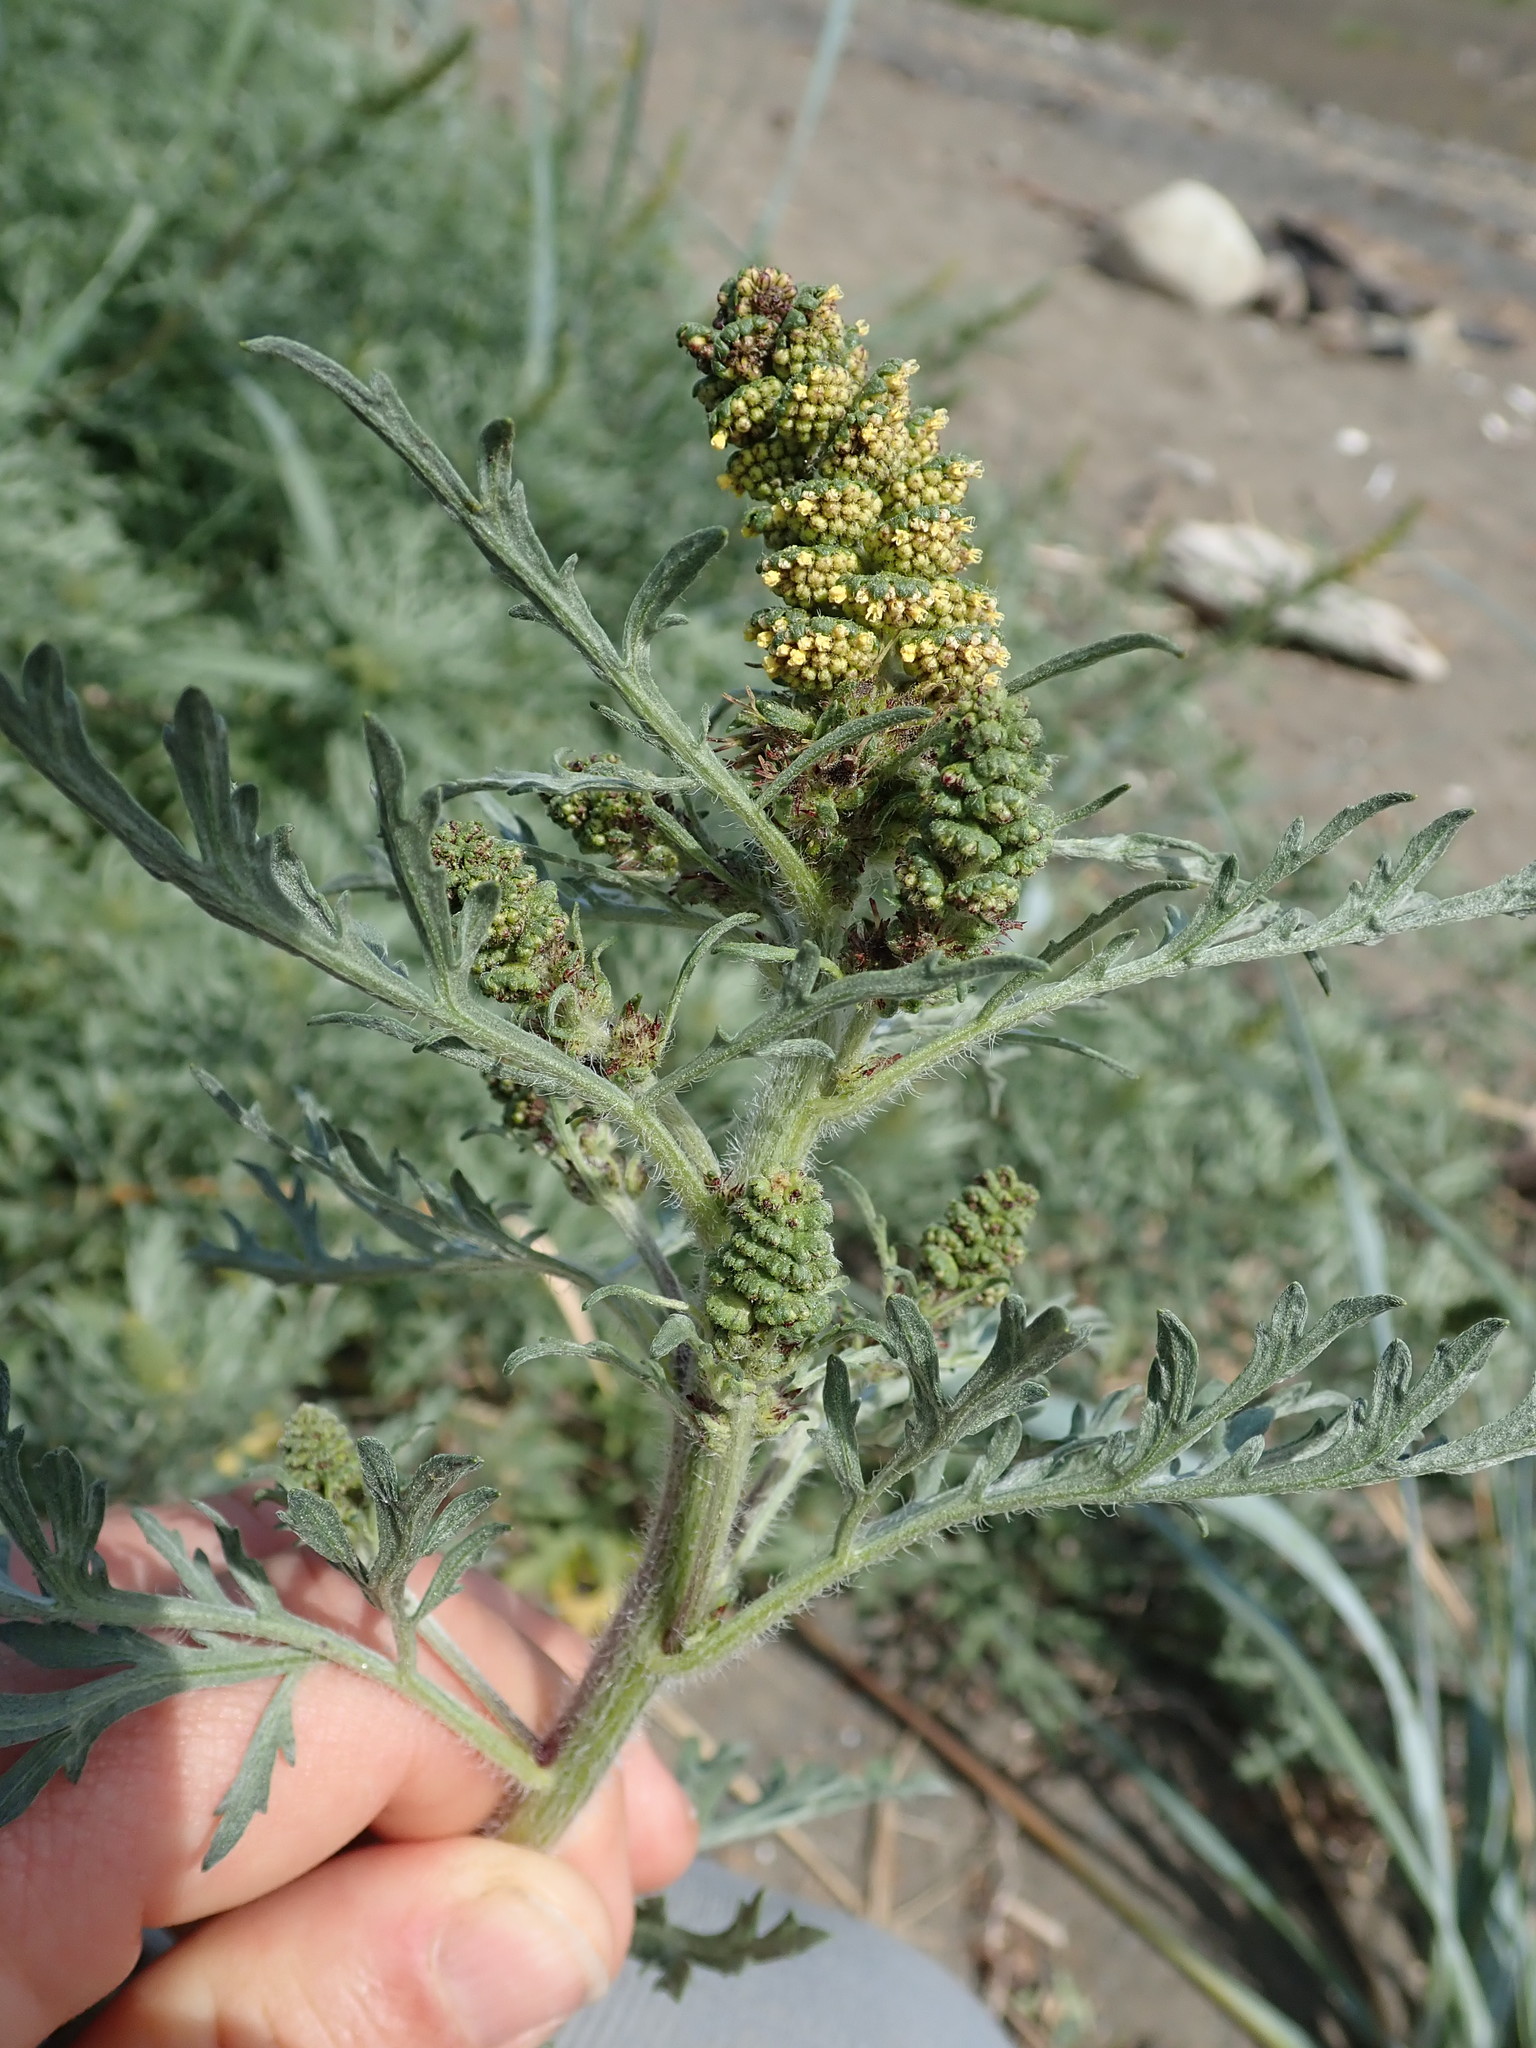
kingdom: Plantae
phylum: Tracheophyta
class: Magnoliopsida
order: Asterales
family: Asteraceae
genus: Ambrosia
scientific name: Ambrosia chamissonis
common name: Beachbur
